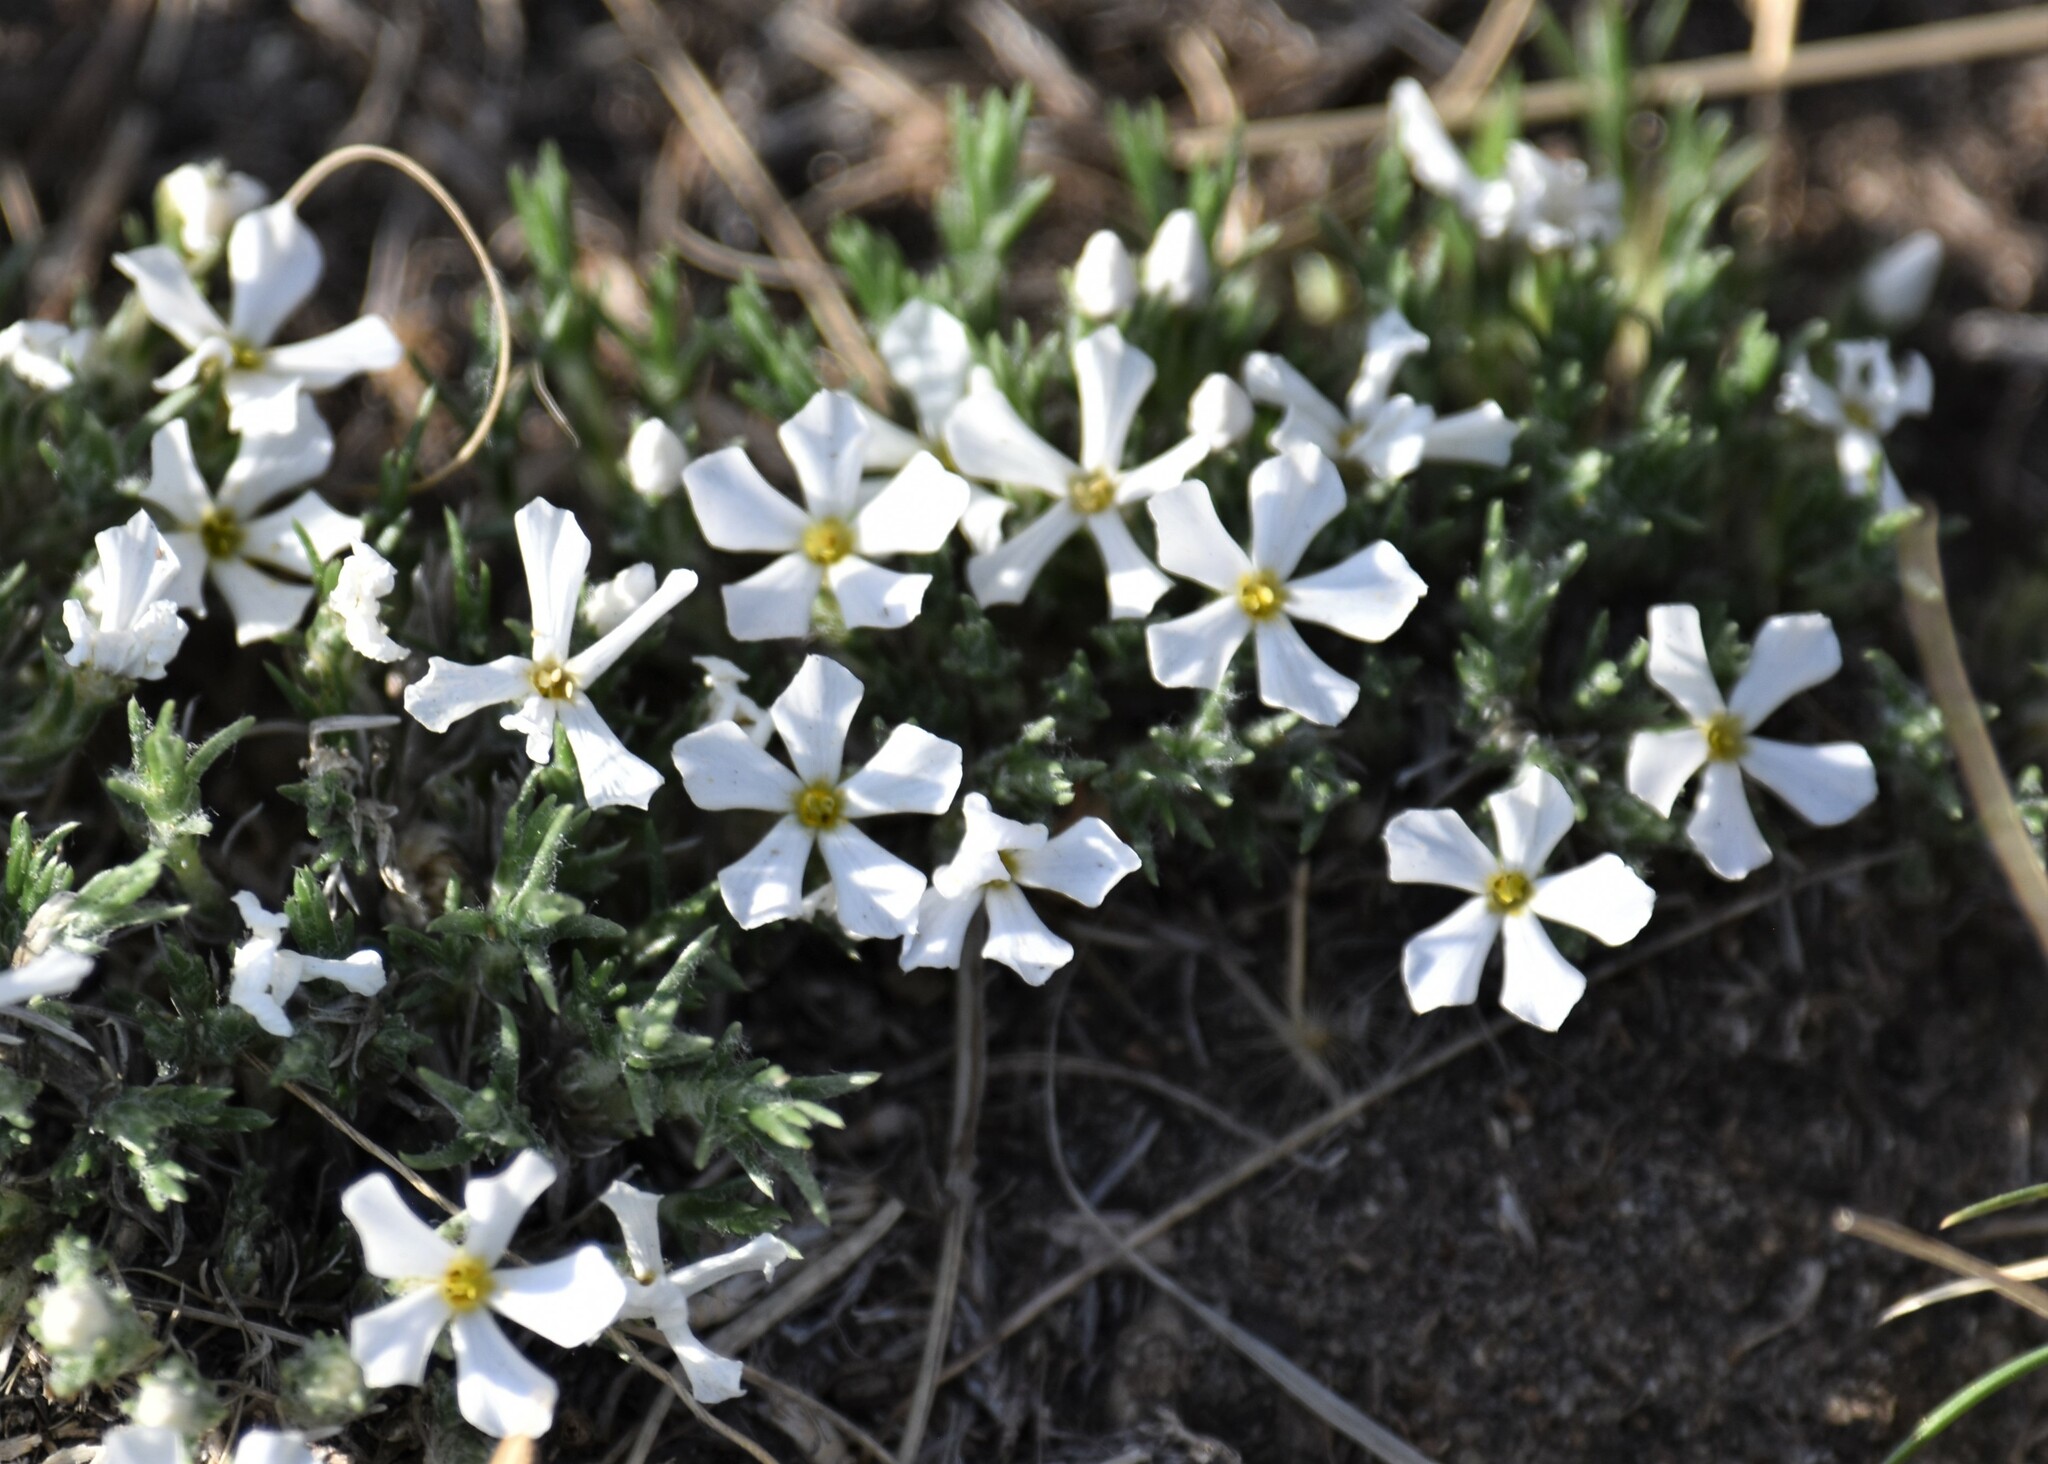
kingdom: Plantae
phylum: Tracheophyta
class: Magnoliopsida
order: Ericales
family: Polemoniaceae
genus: Phlox
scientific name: Phlox hoodii
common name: Moss phlox
